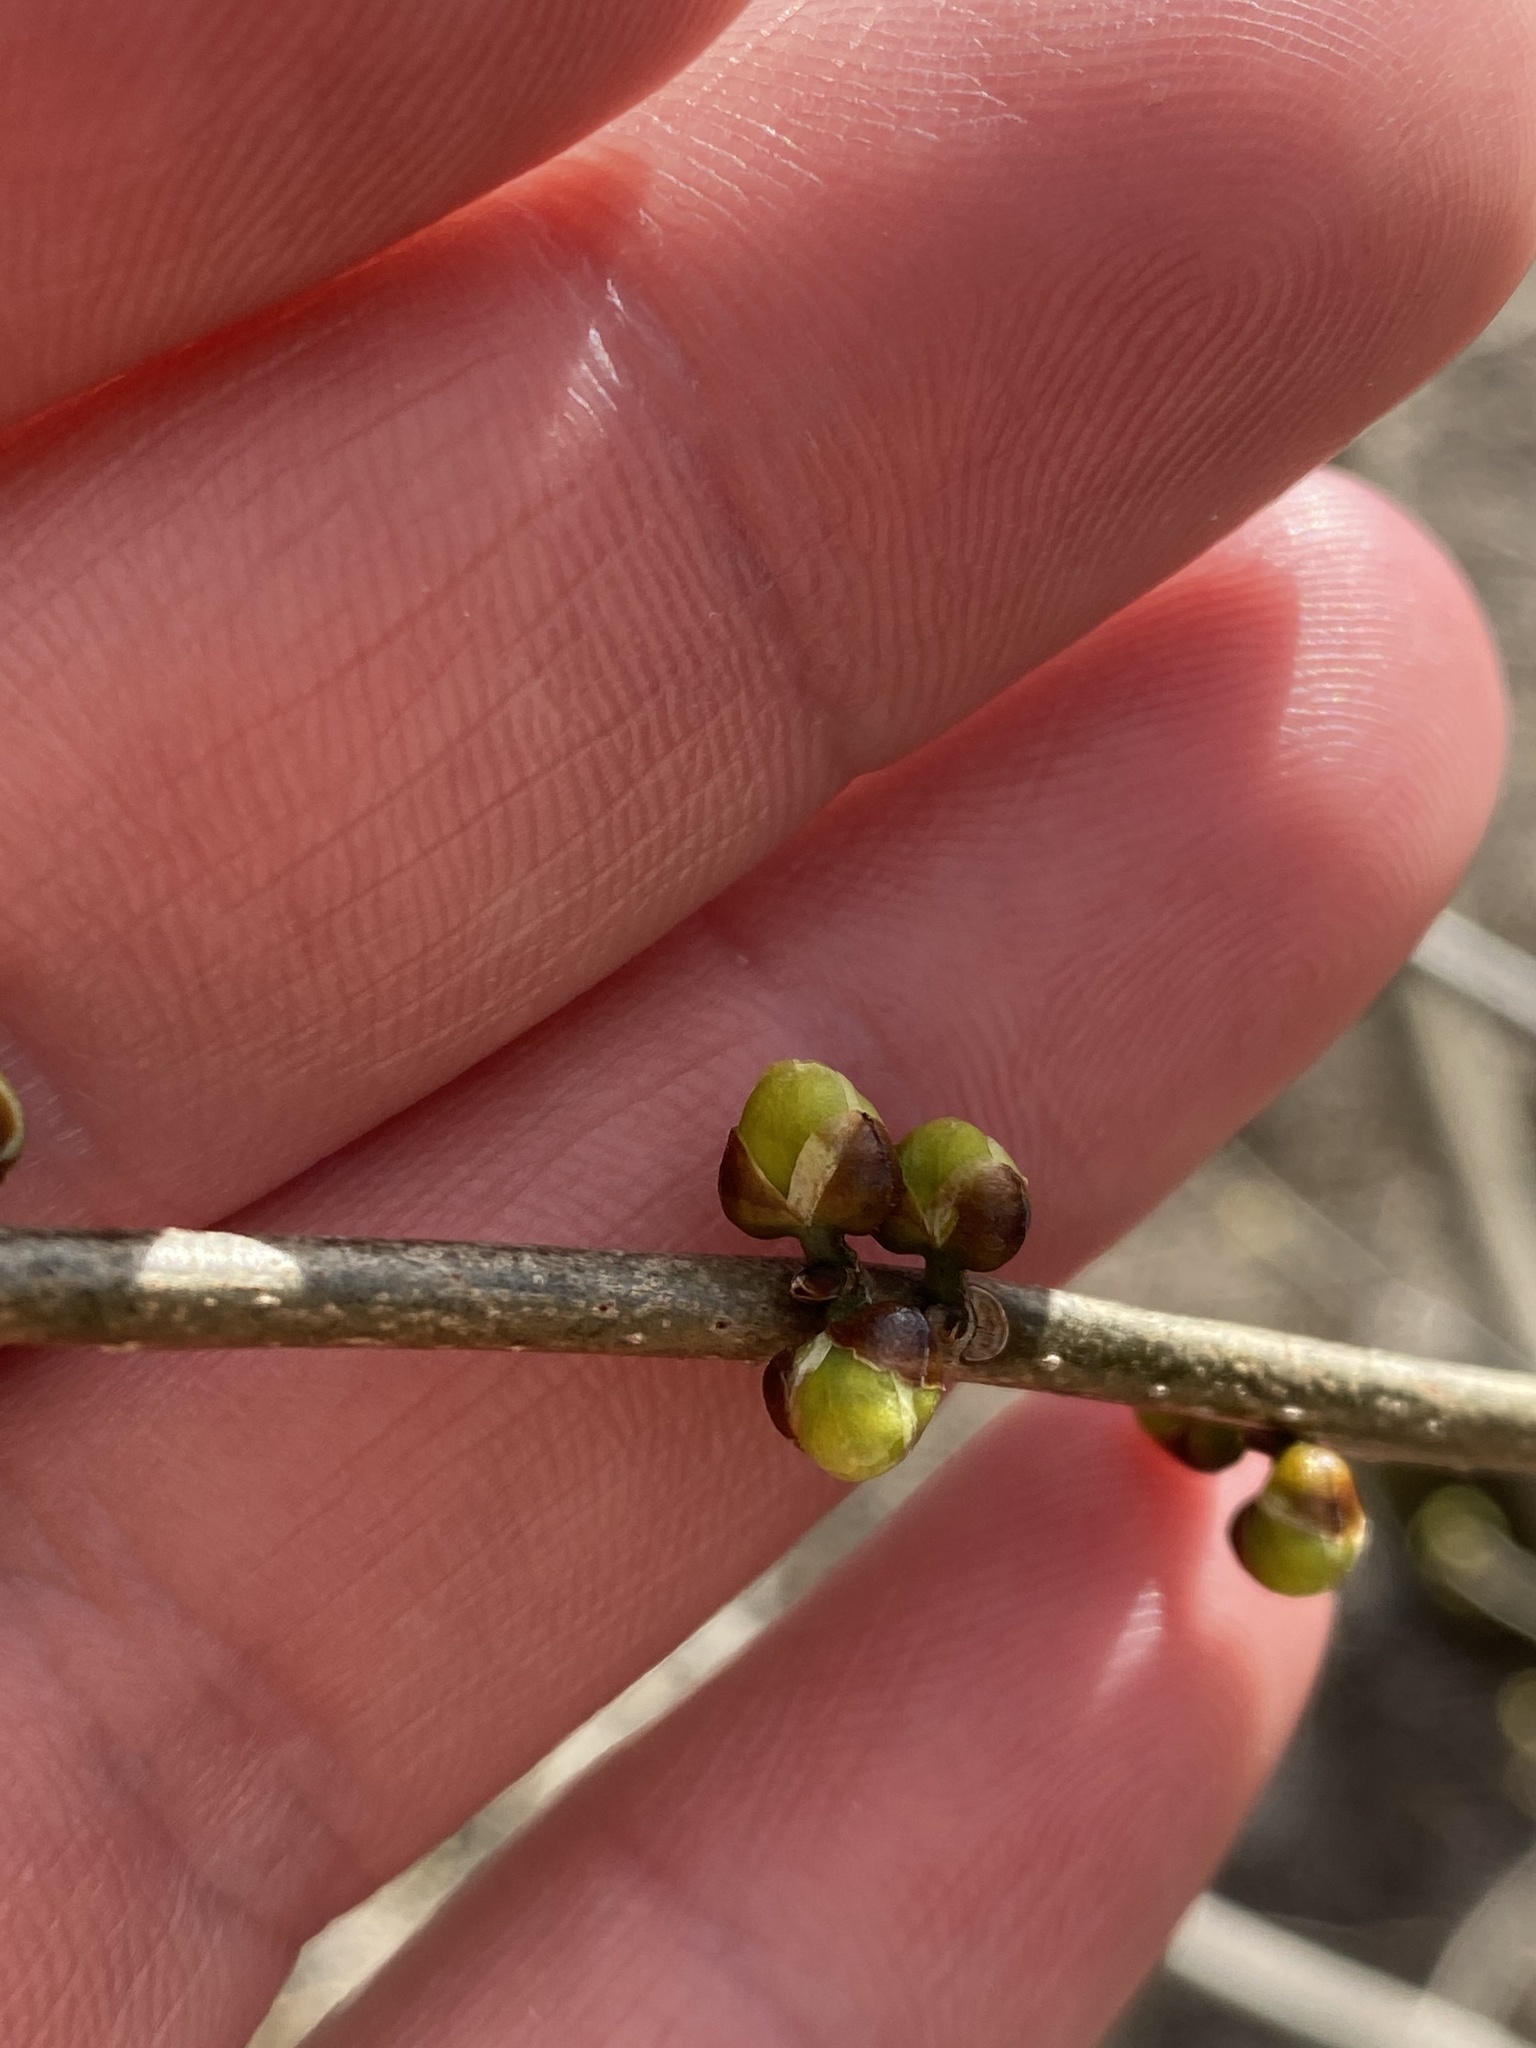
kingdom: Plantae
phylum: Tracheophyta
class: Magnoliopsida
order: Laurales
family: Lauraceae
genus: Lindera
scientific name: Lindera benzoin
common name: Spicebush
